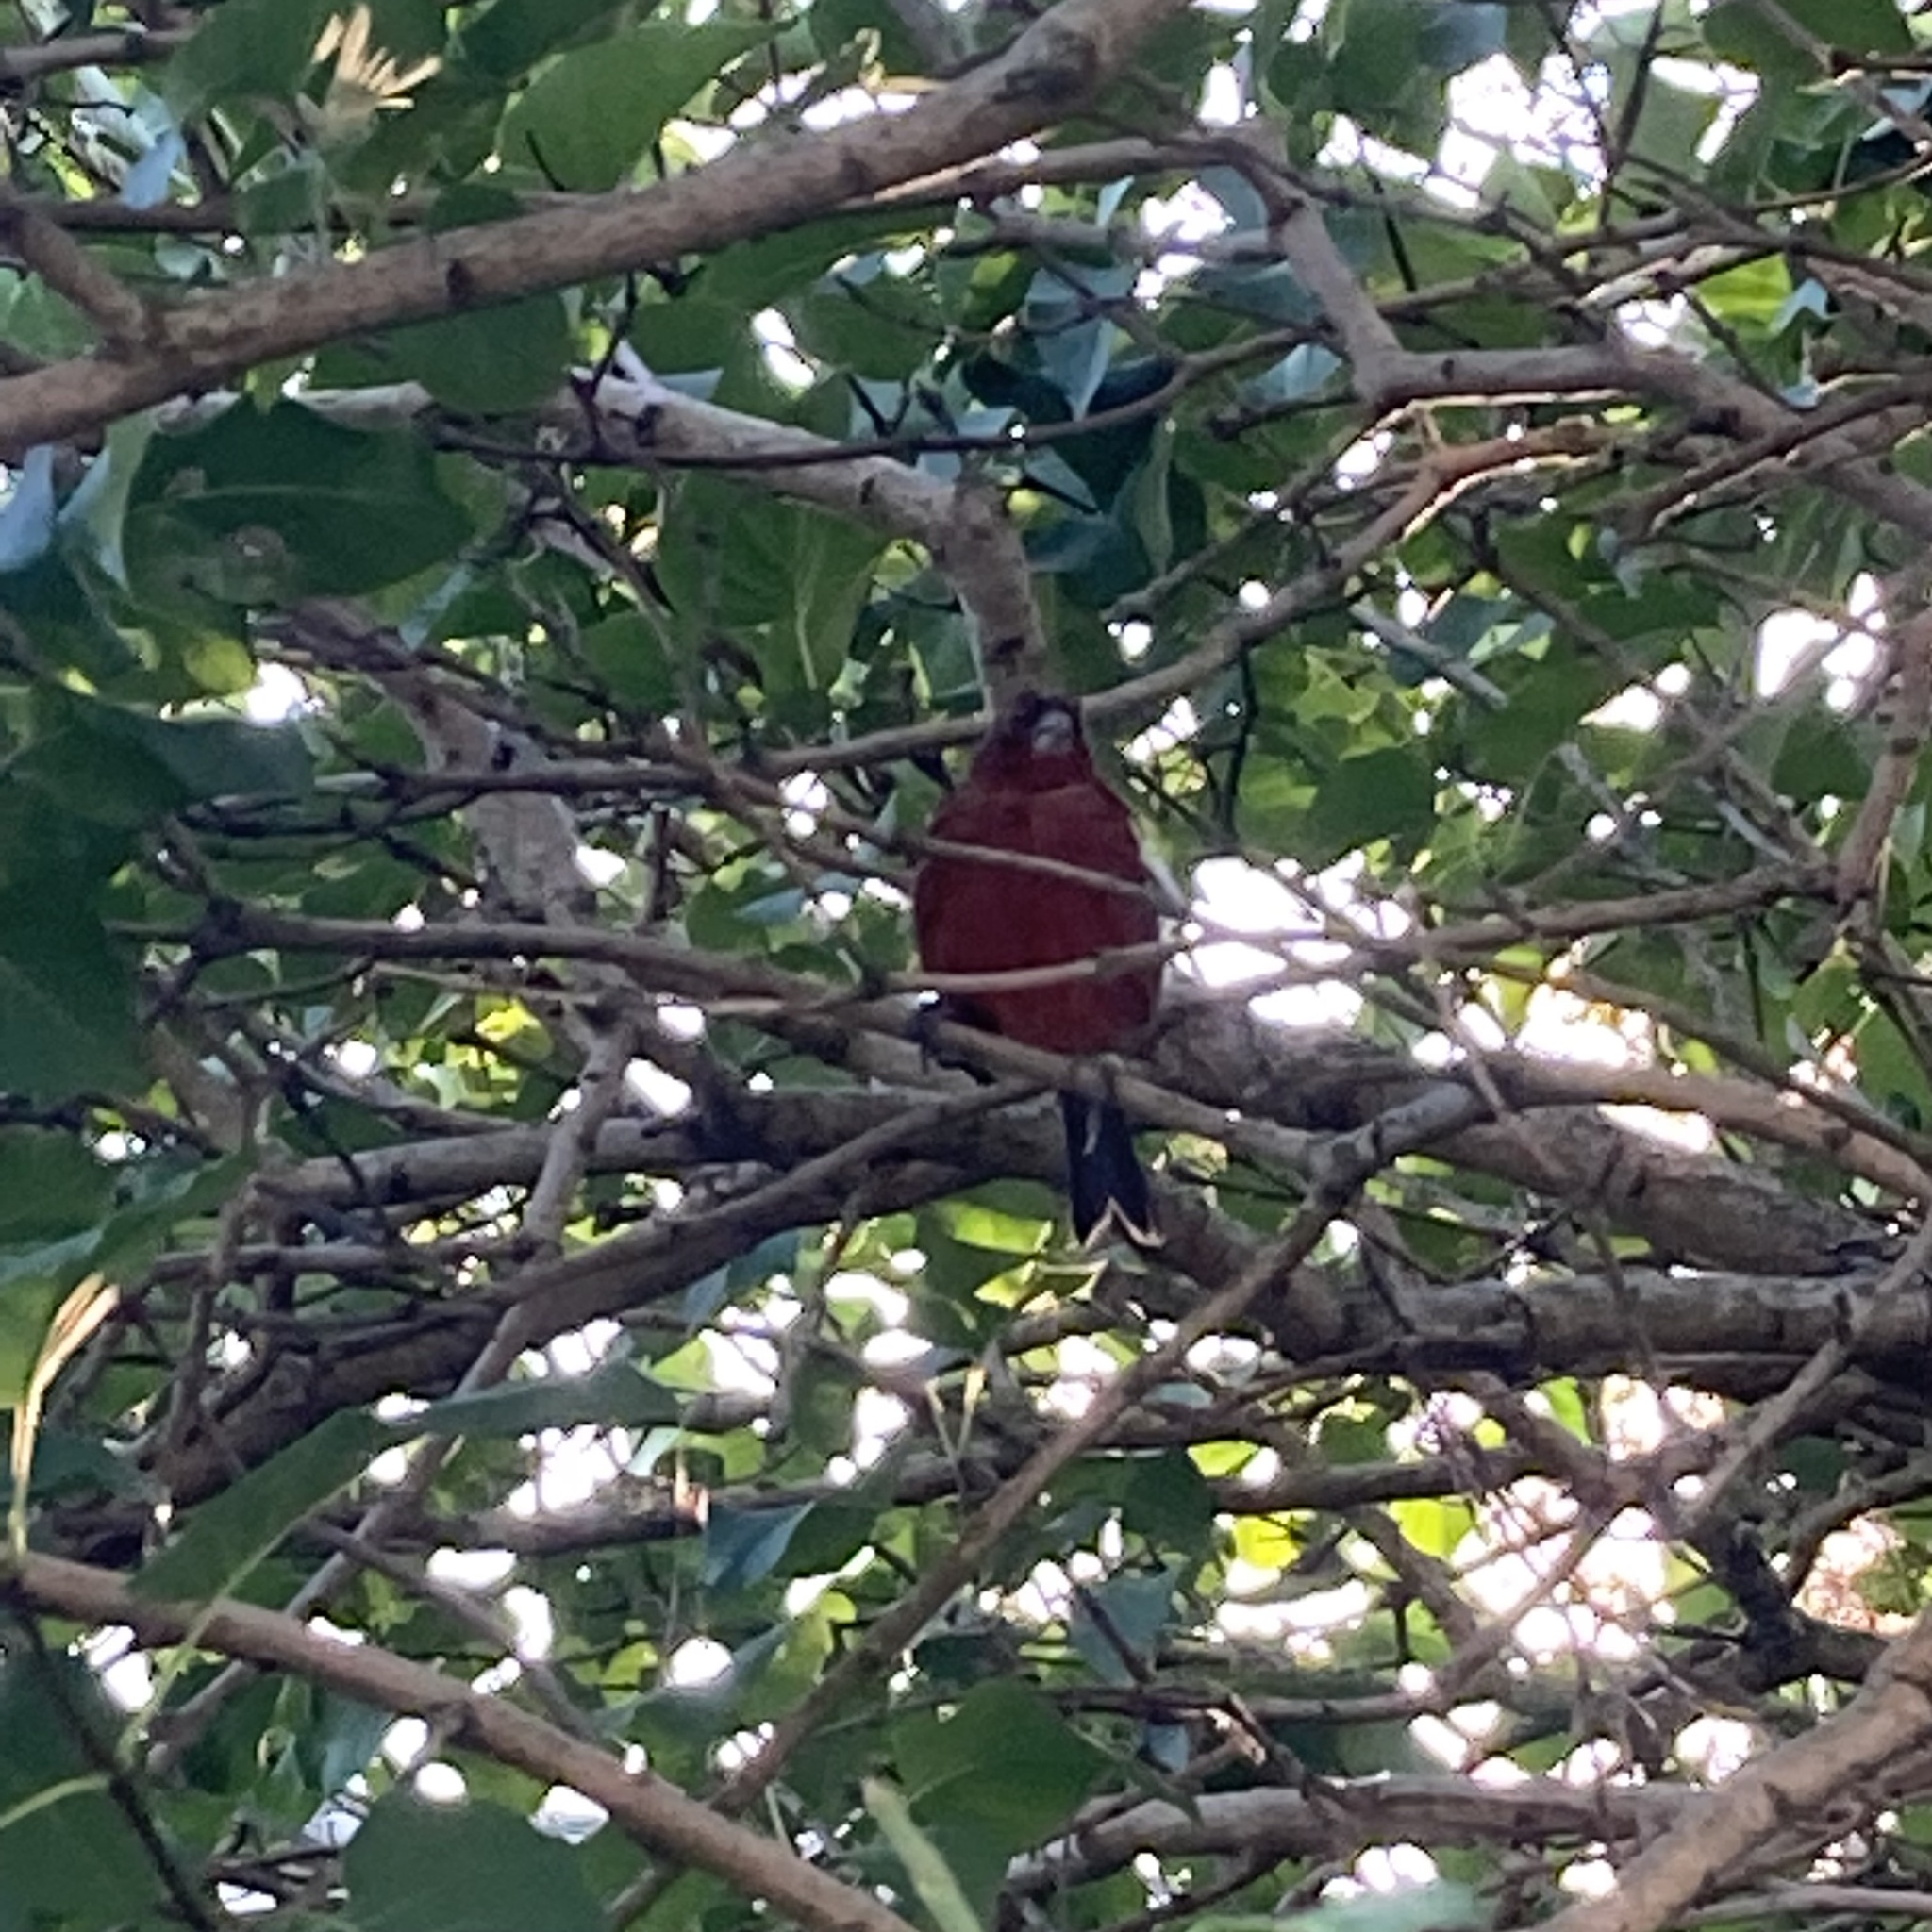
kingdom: Animalia
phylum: Chordata
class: Aves
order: Passeriformes
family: Muscicapidae
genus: Saxicola
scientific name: Saxicola rubetra
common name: Whinchat
